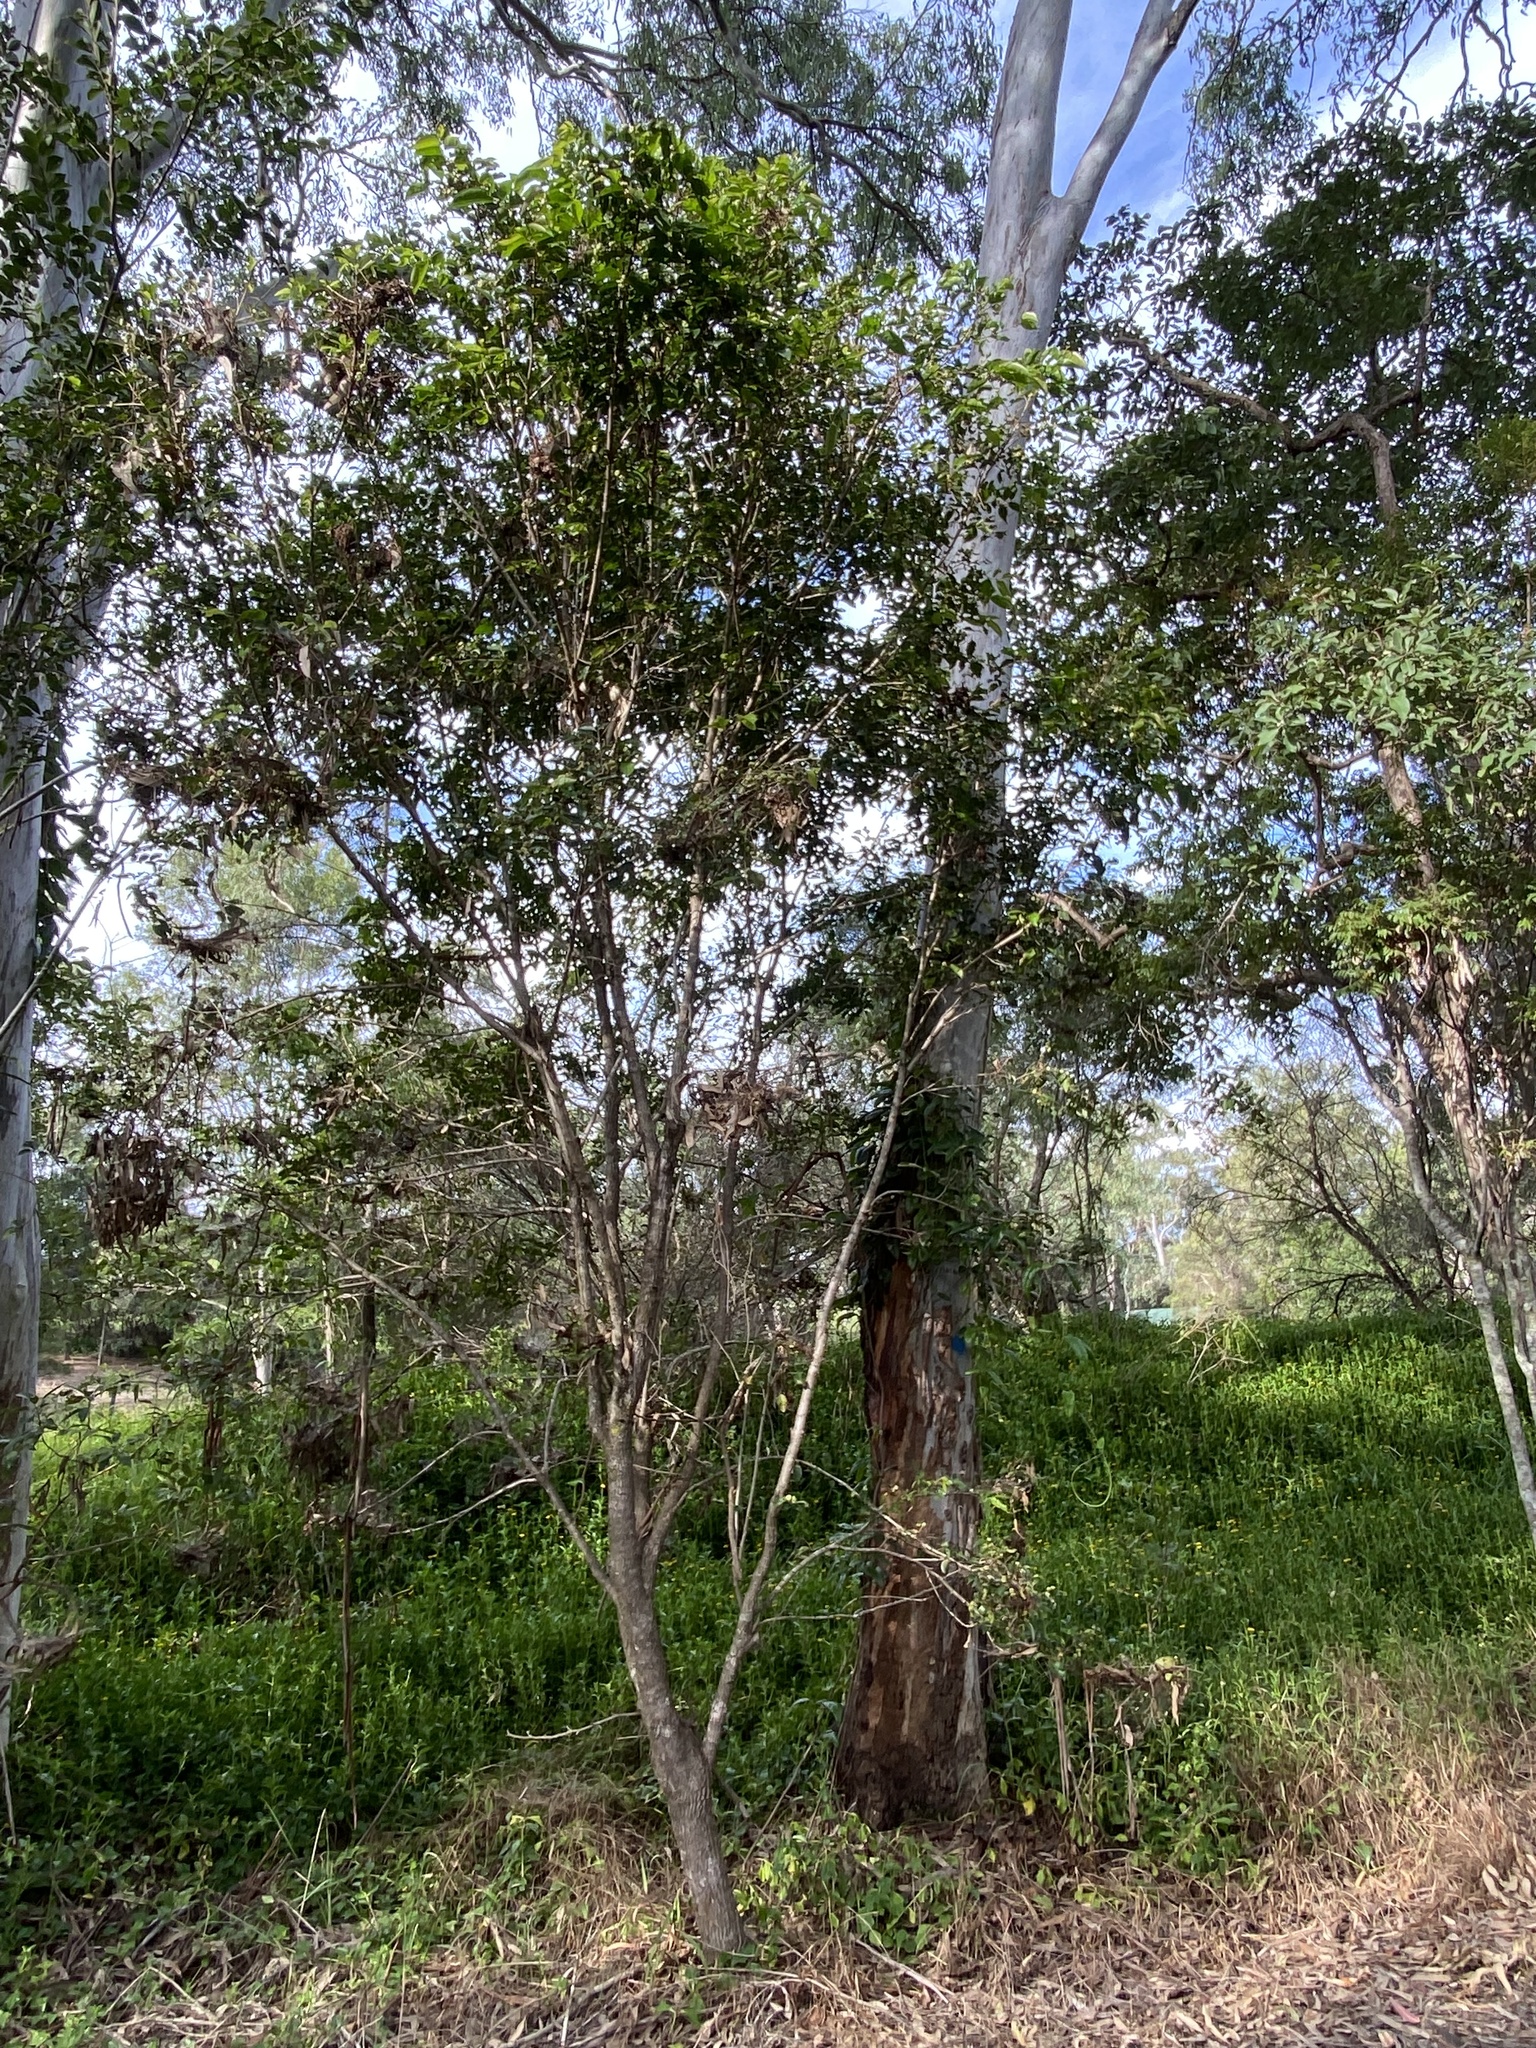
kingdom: Plantae
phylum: Tracheophyta
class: Magnoliopsida
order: Malpighiales
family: Phyllanthaceae
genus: Glochidion
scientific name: Glochidion ferdinandi
